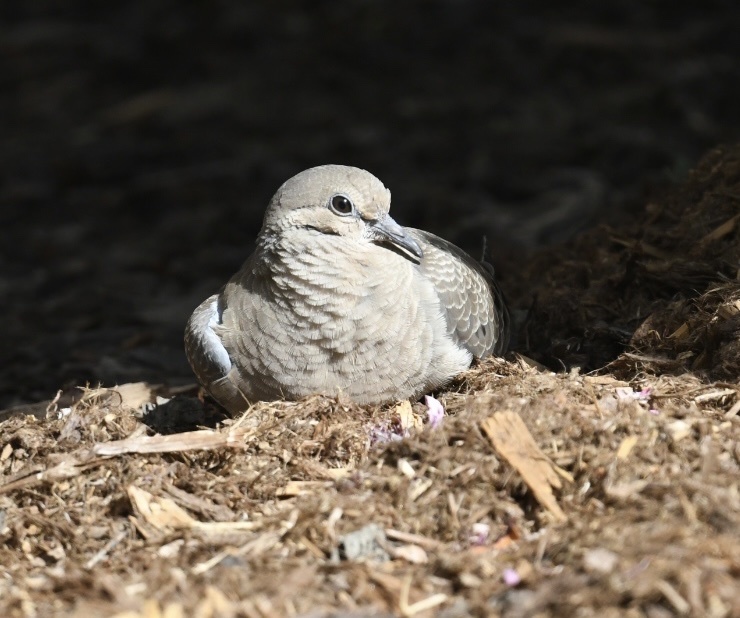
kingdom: Animalia
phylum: Chordata
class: Aves
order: Columbiformes
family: Columbidae
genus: Zenaida
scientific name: Zenaida macroura
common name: Mourning dove
